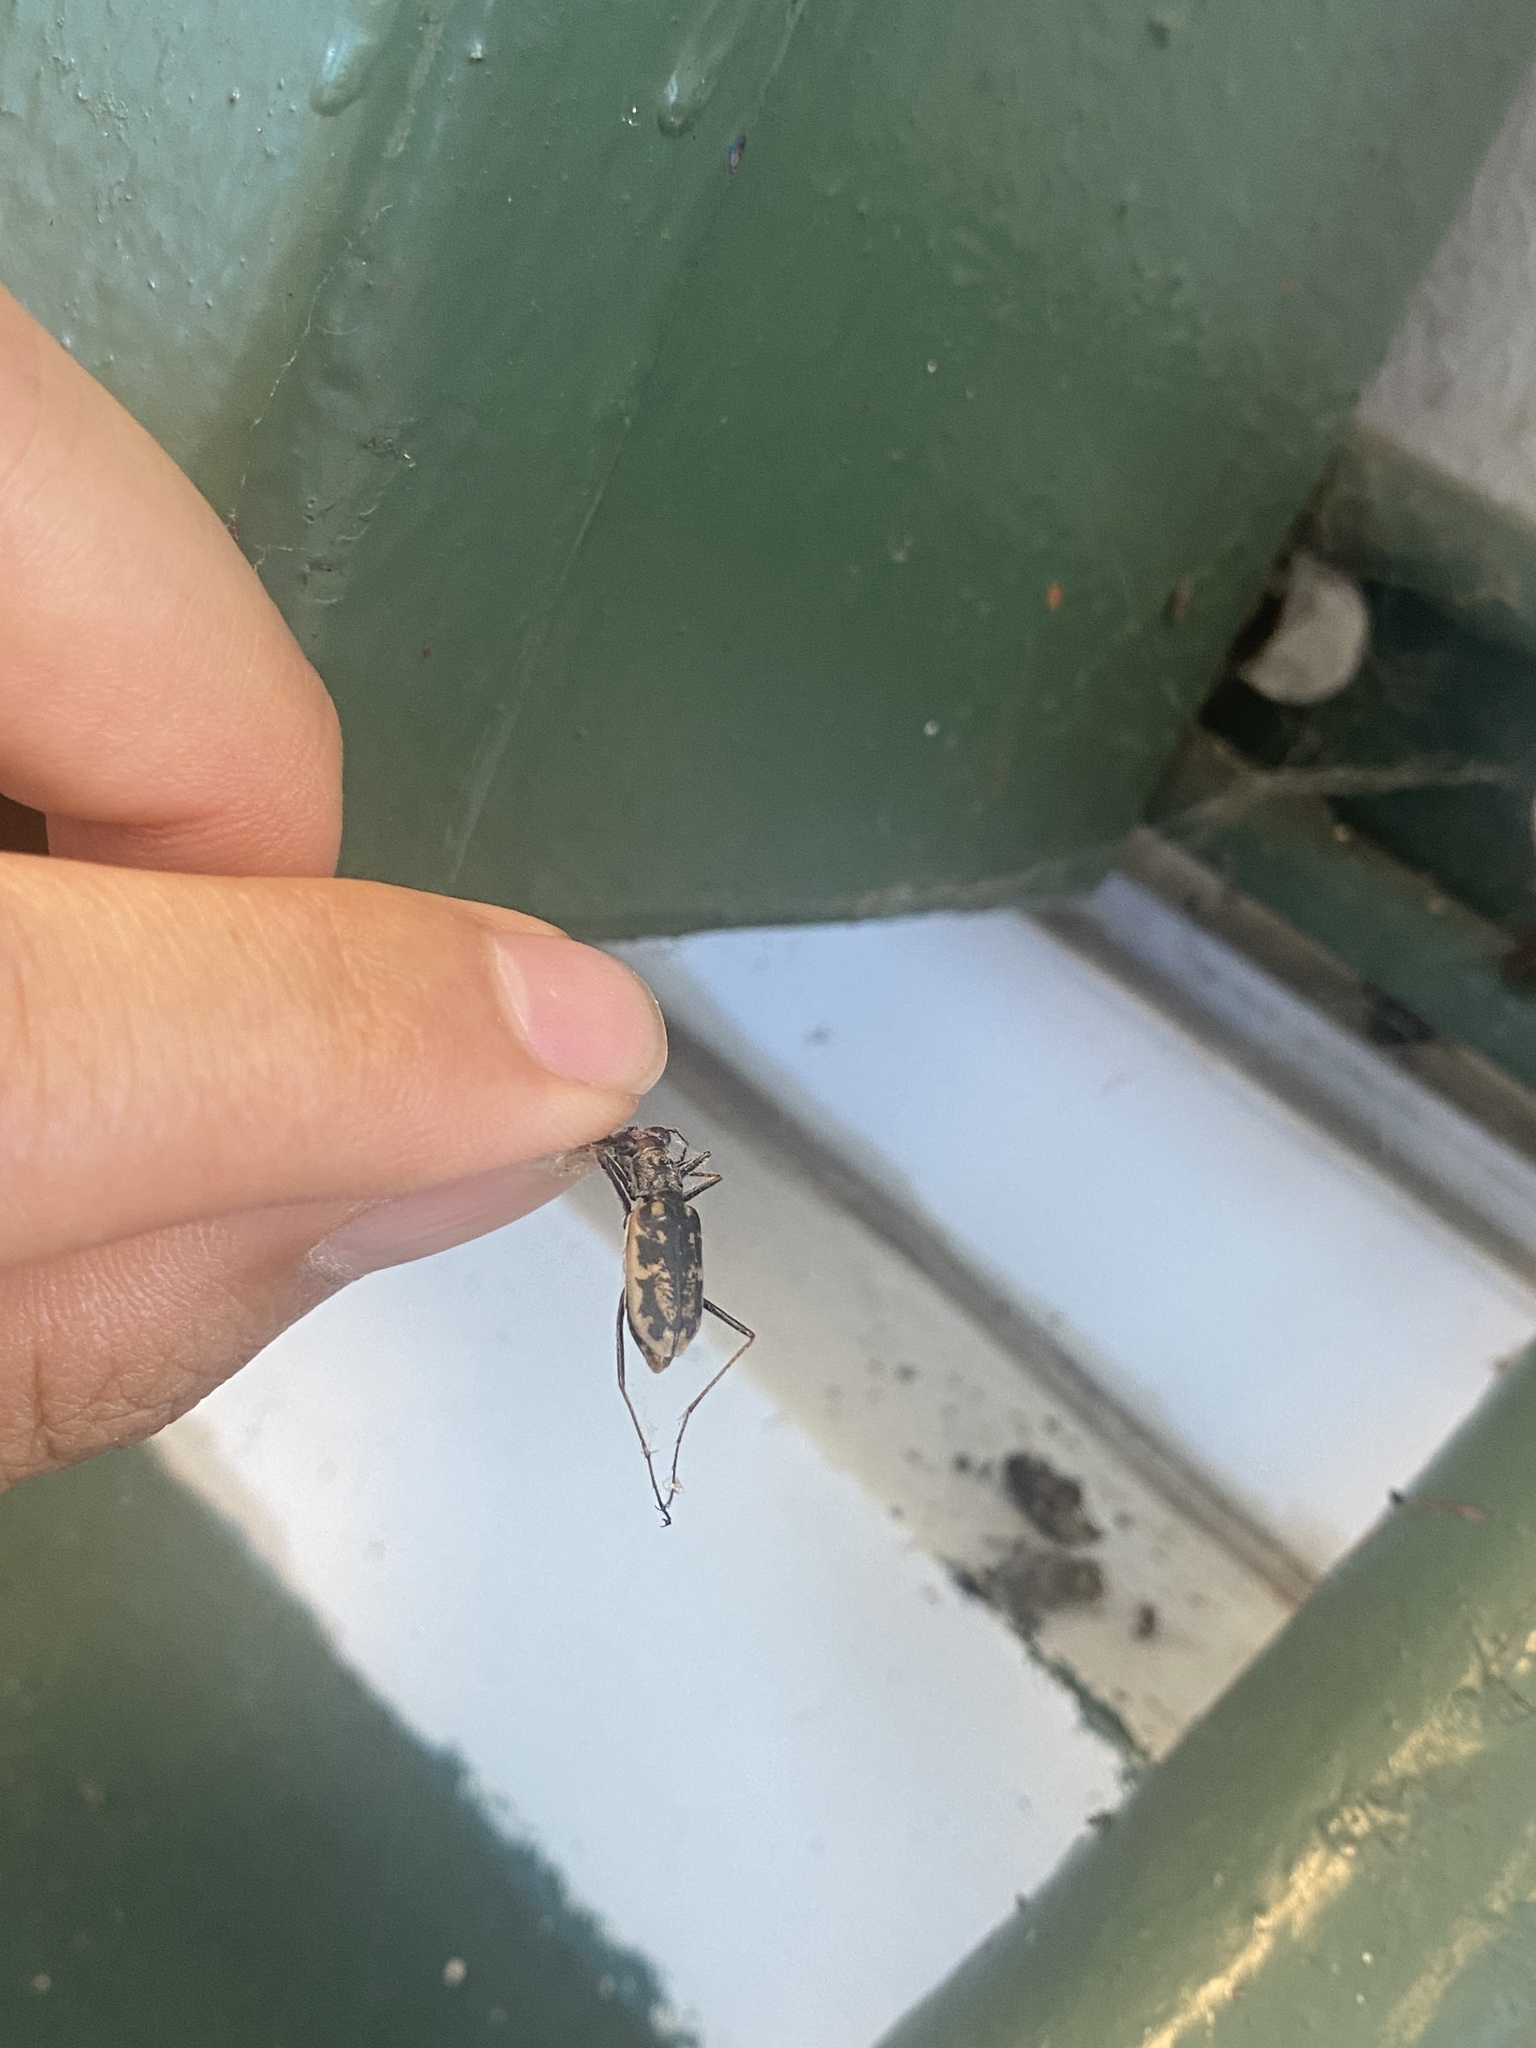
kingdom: Animalia
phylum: Arthropoda
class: Insecta
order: Coleoptera
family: Carabidae
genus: Ellipsoptera
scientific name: Ellipsoptera marginata
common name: Margined tiger beetle
